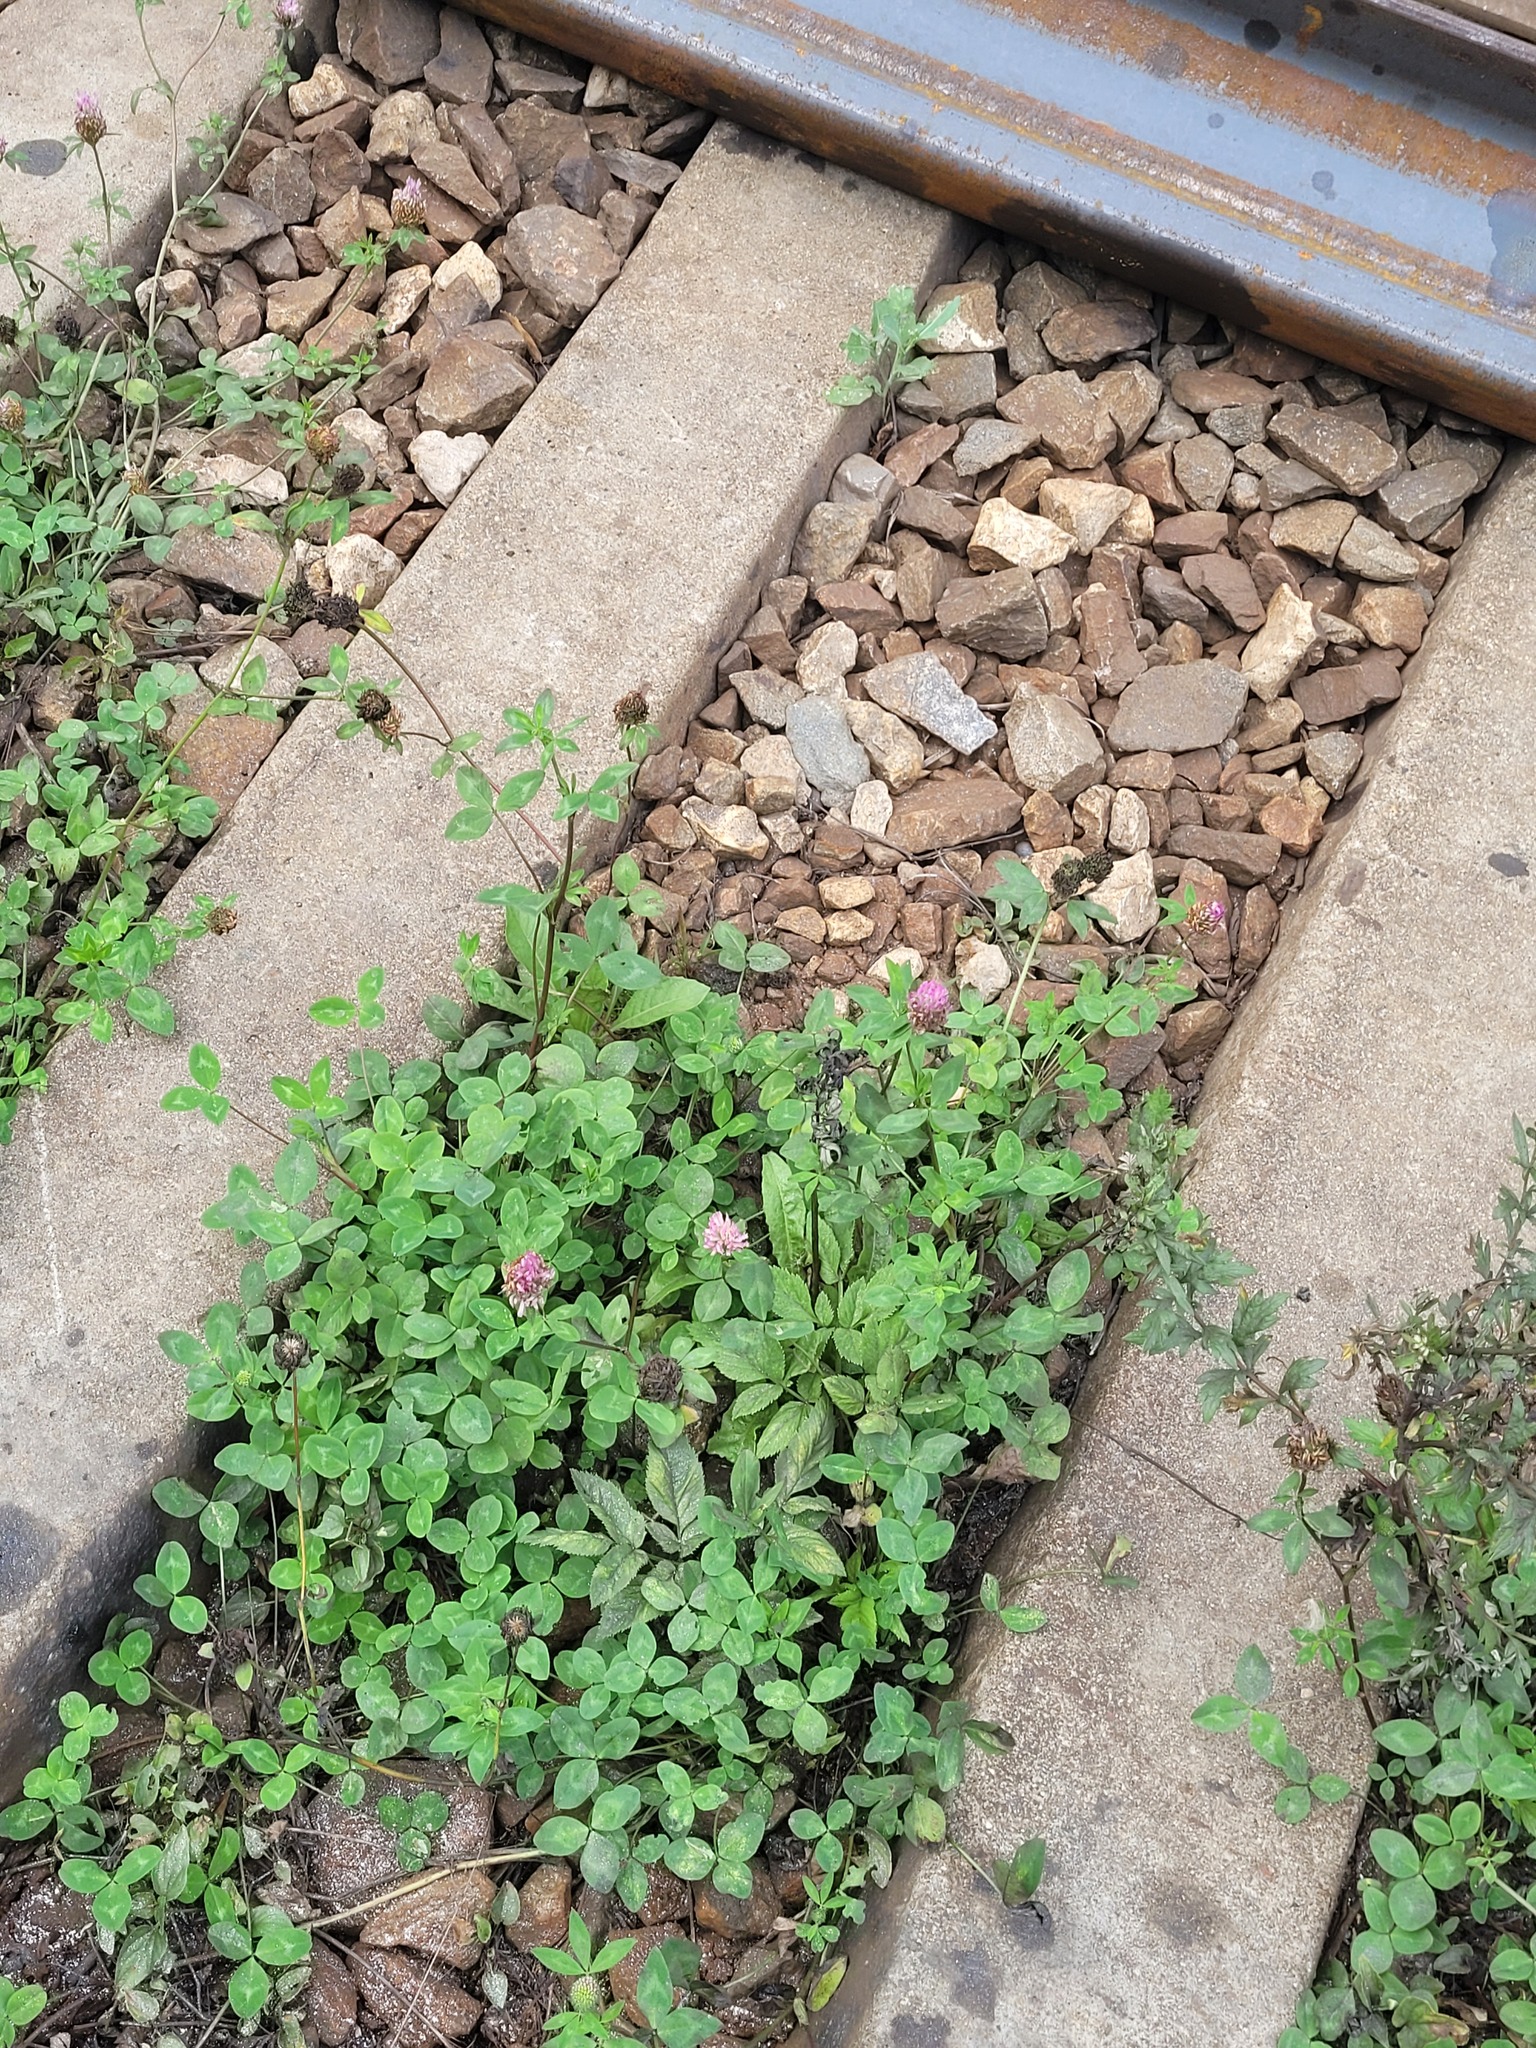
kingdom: Plantae
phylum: Tracheophyta
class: Magnoliopsida
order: Fabales
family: Fabaceae
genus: Trifolium
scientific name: Trifolium pratense
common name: Red clover
